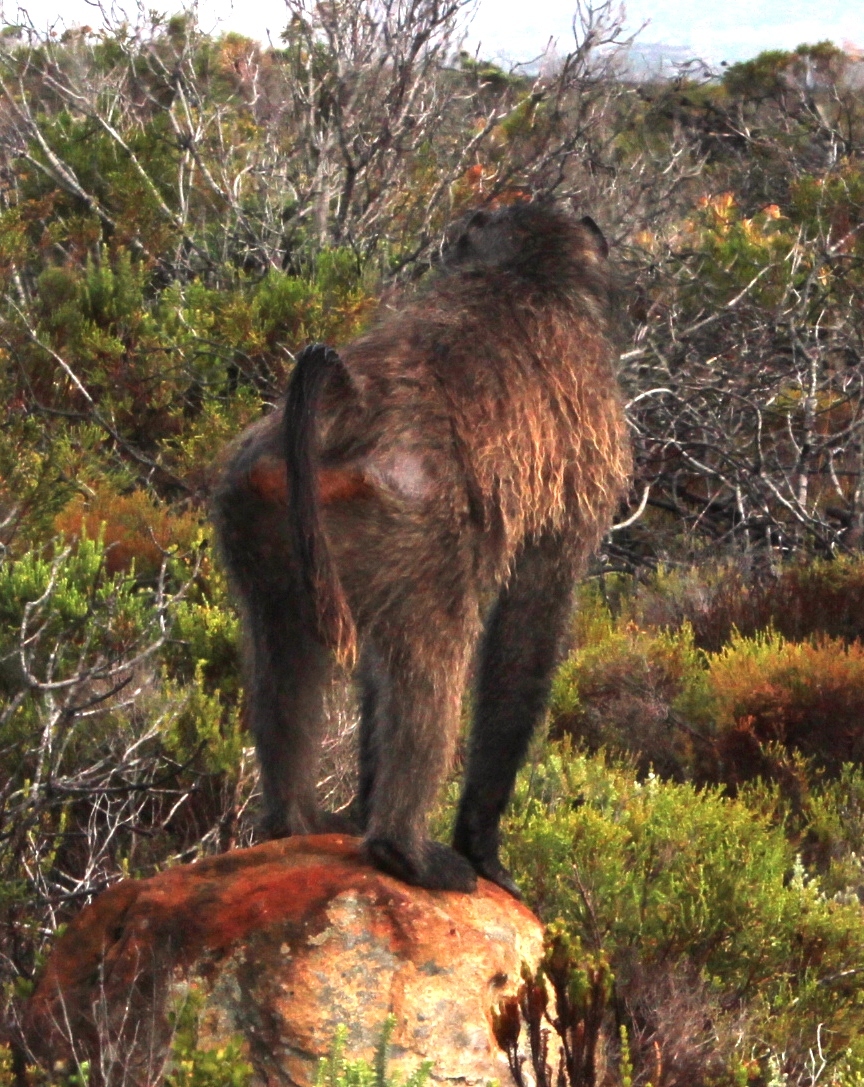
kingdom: Animalia
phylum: Chordata
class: Mammalia
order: Primates
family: Cercopithecidae
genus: Papio
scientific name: Papio ursinus
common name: Chacma baboon
